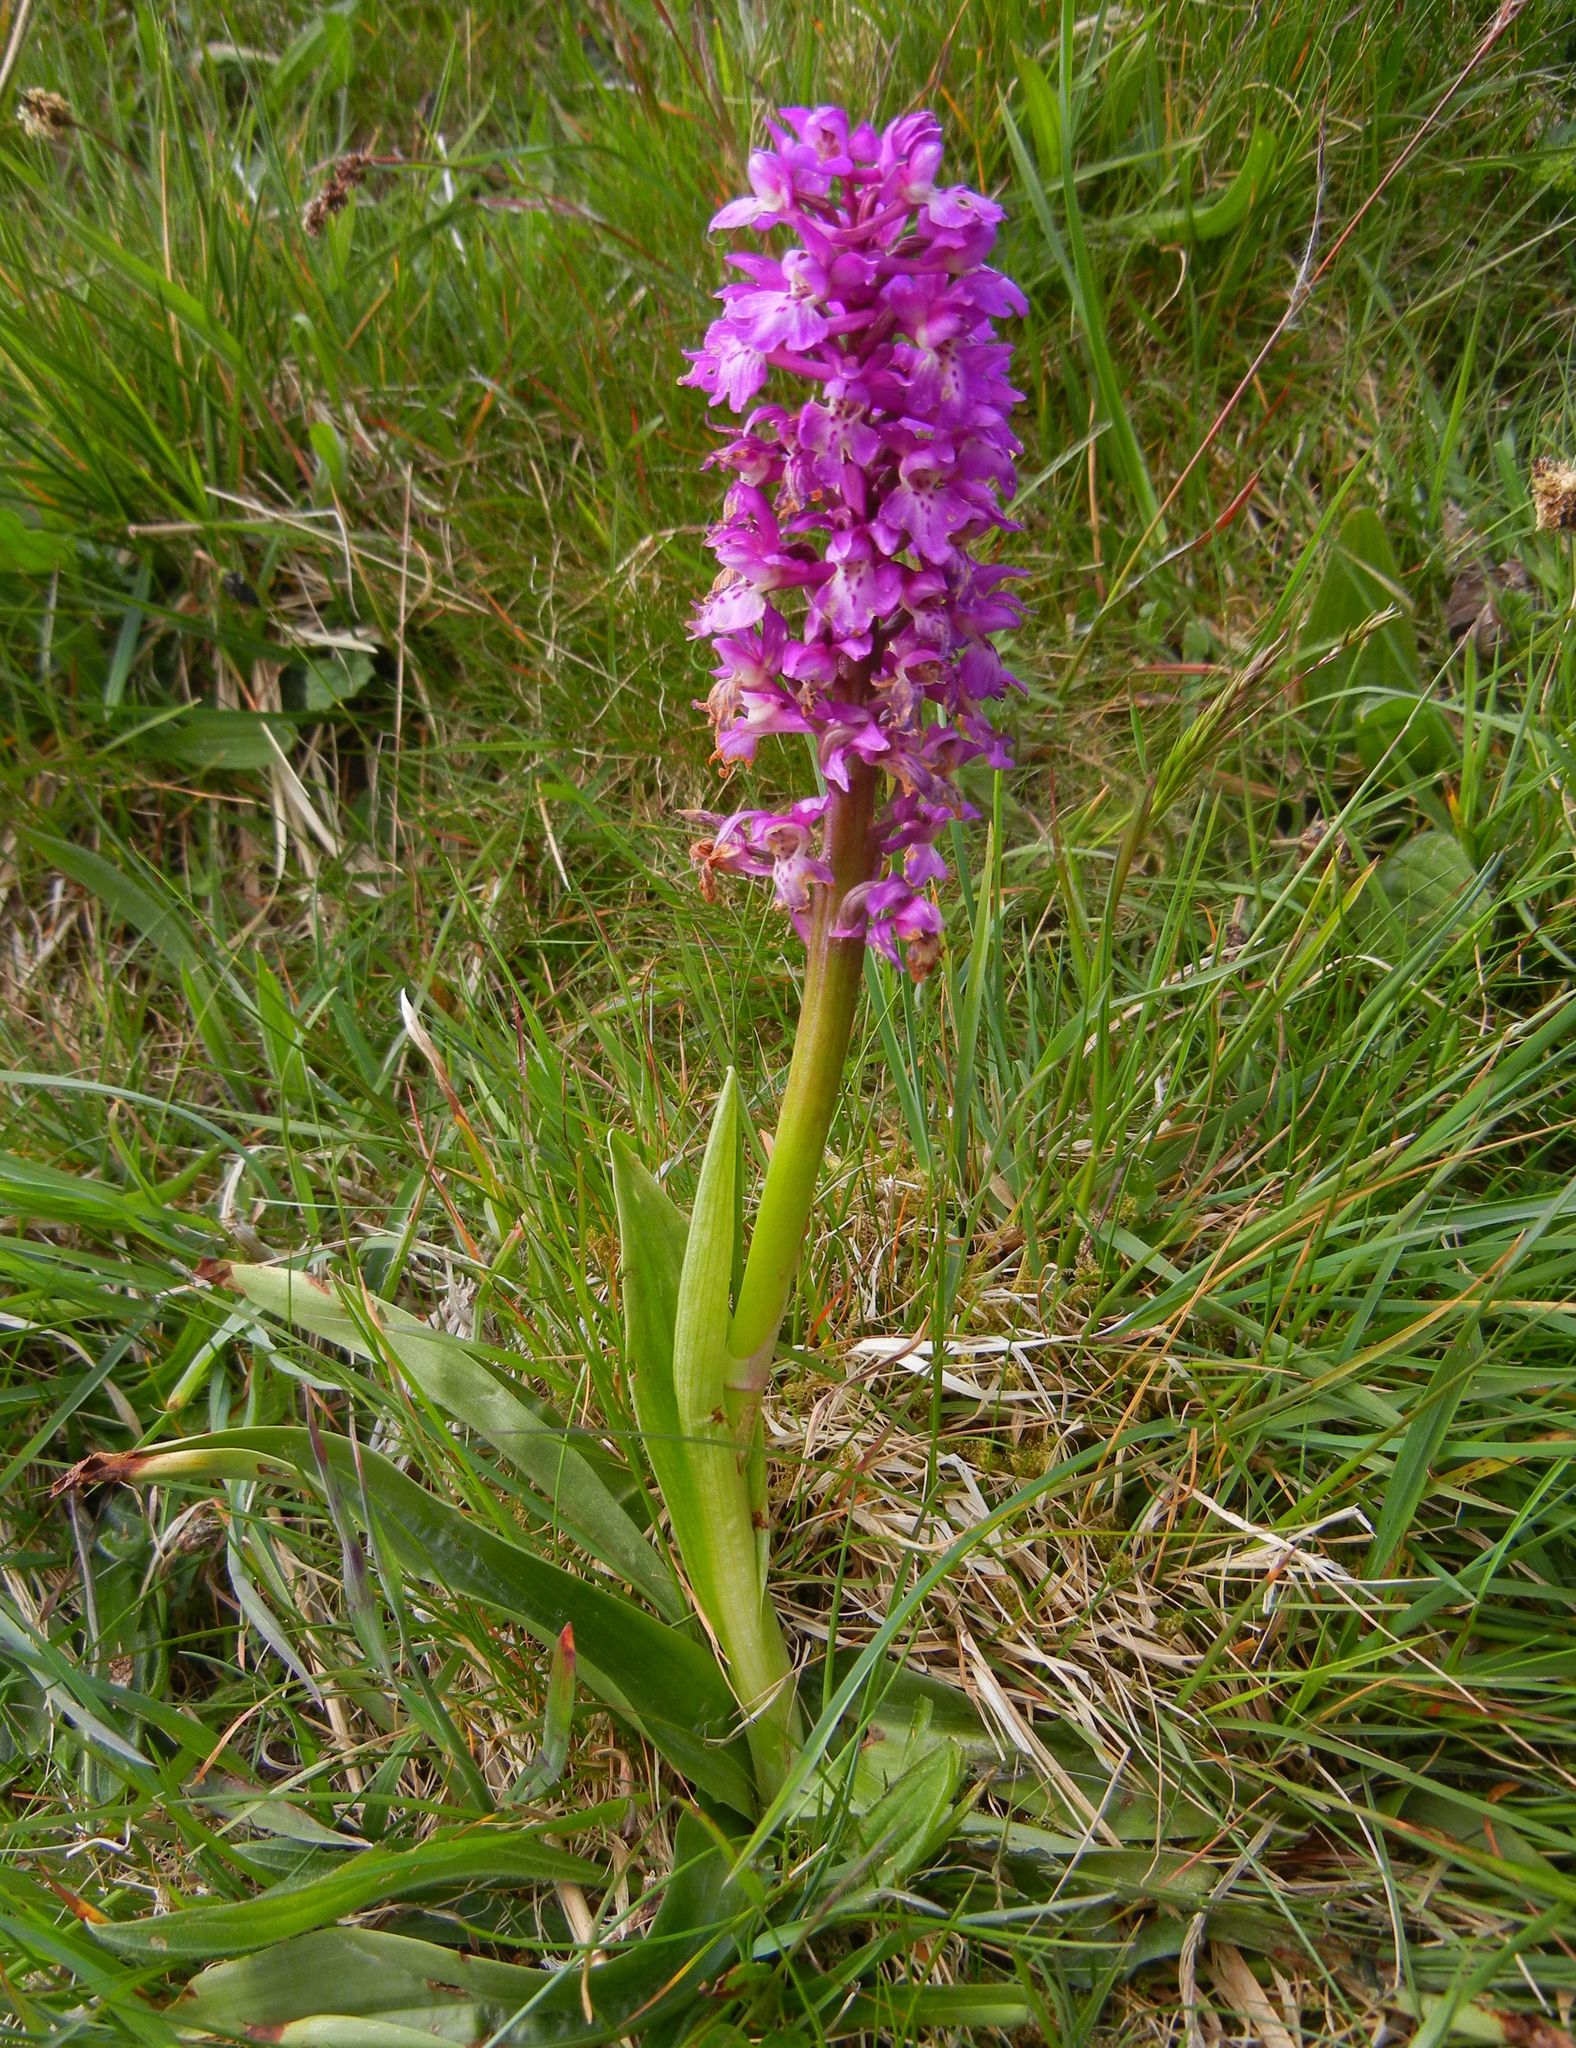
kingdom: Plantae
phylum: Tracheophyta
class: Liliopsida
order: Asparagales
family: Orchidaceae
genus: Orchis
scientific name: Orchis mascula
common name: Early-purple orchid
